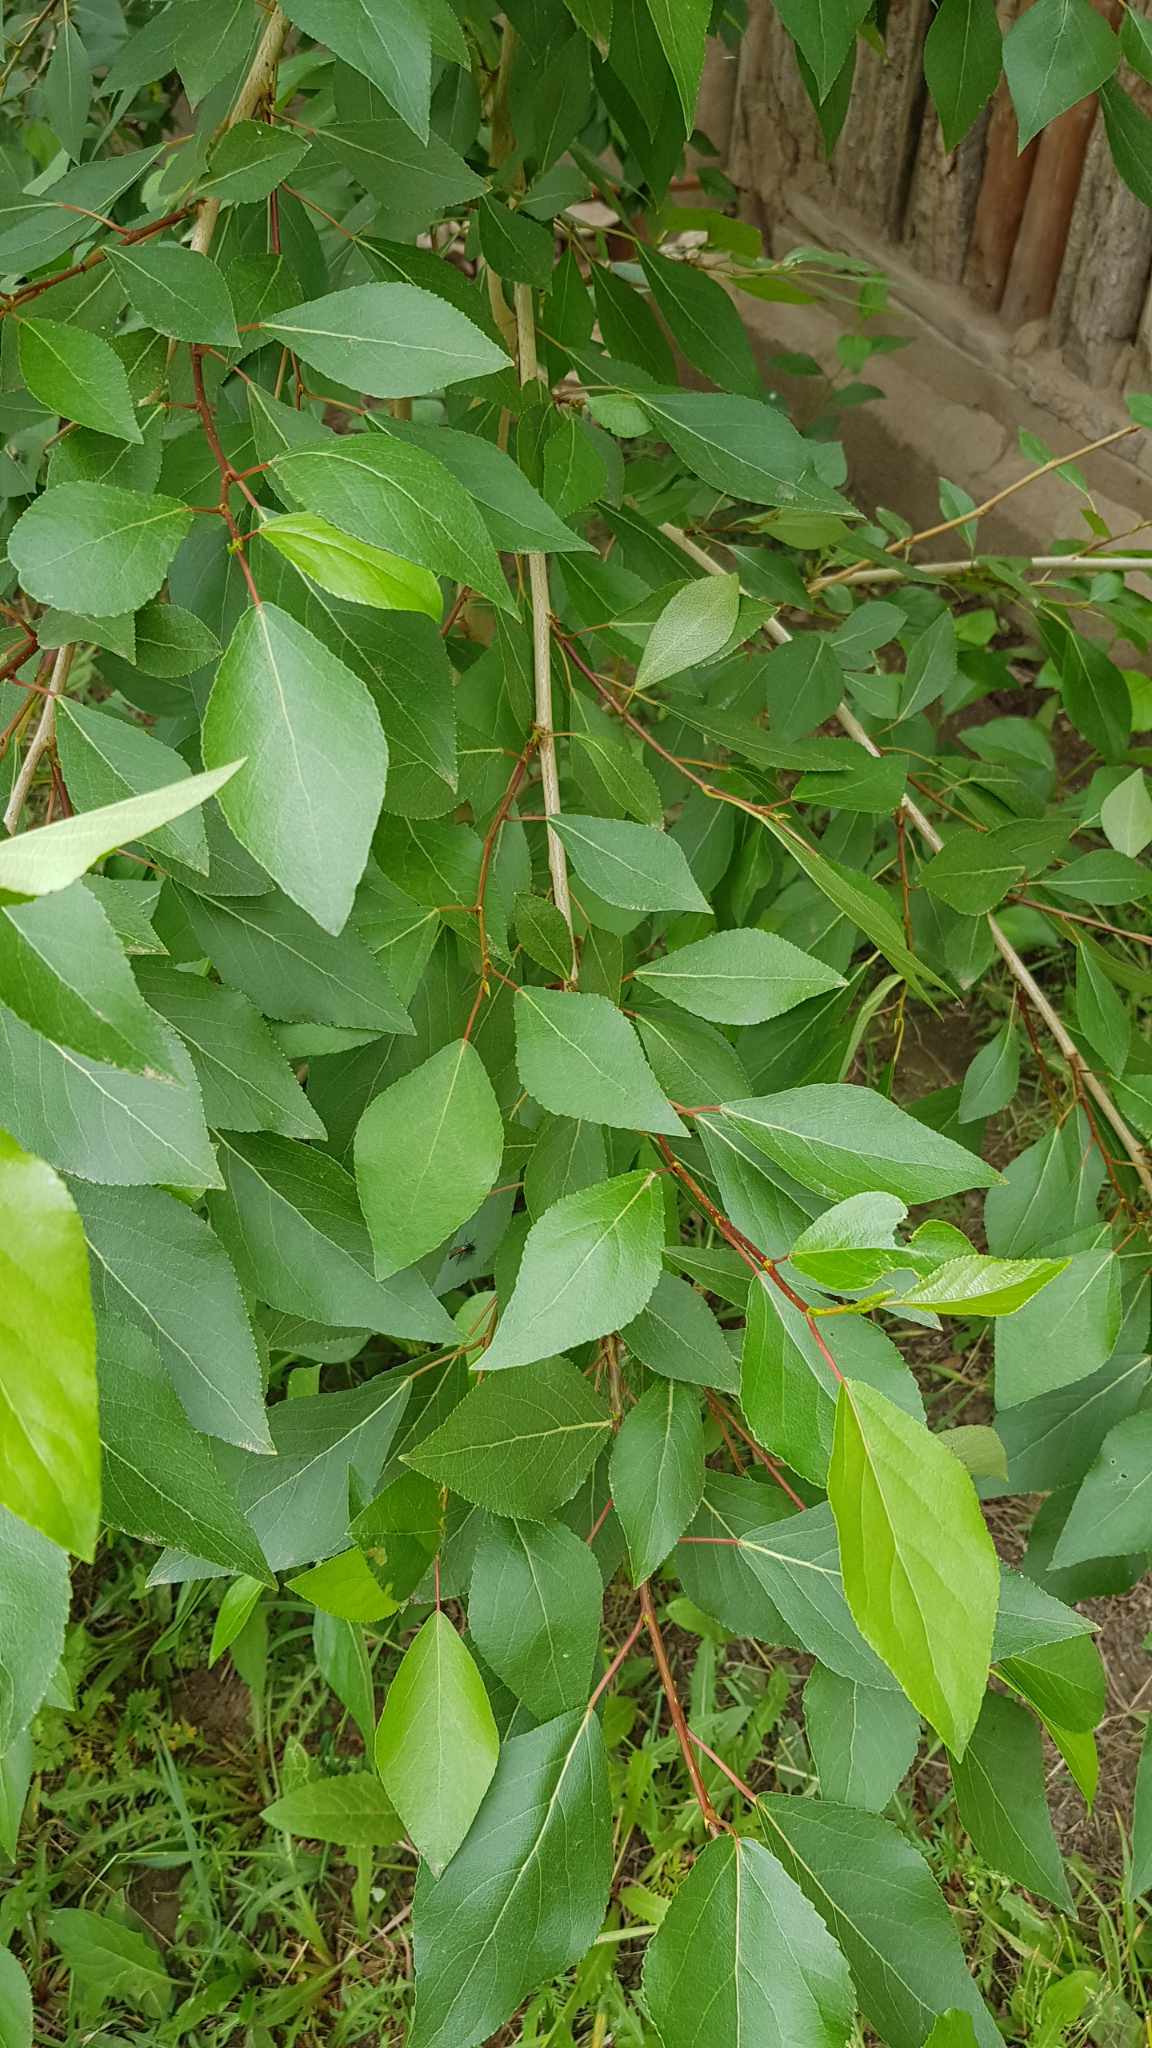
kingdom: Plantae
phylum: Tracheophyta
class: Magnoliopsida
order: Malpighiales
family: Salicaceae
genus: Populus
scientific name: Populus laurifolia
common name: Laurel-leaf poplar
